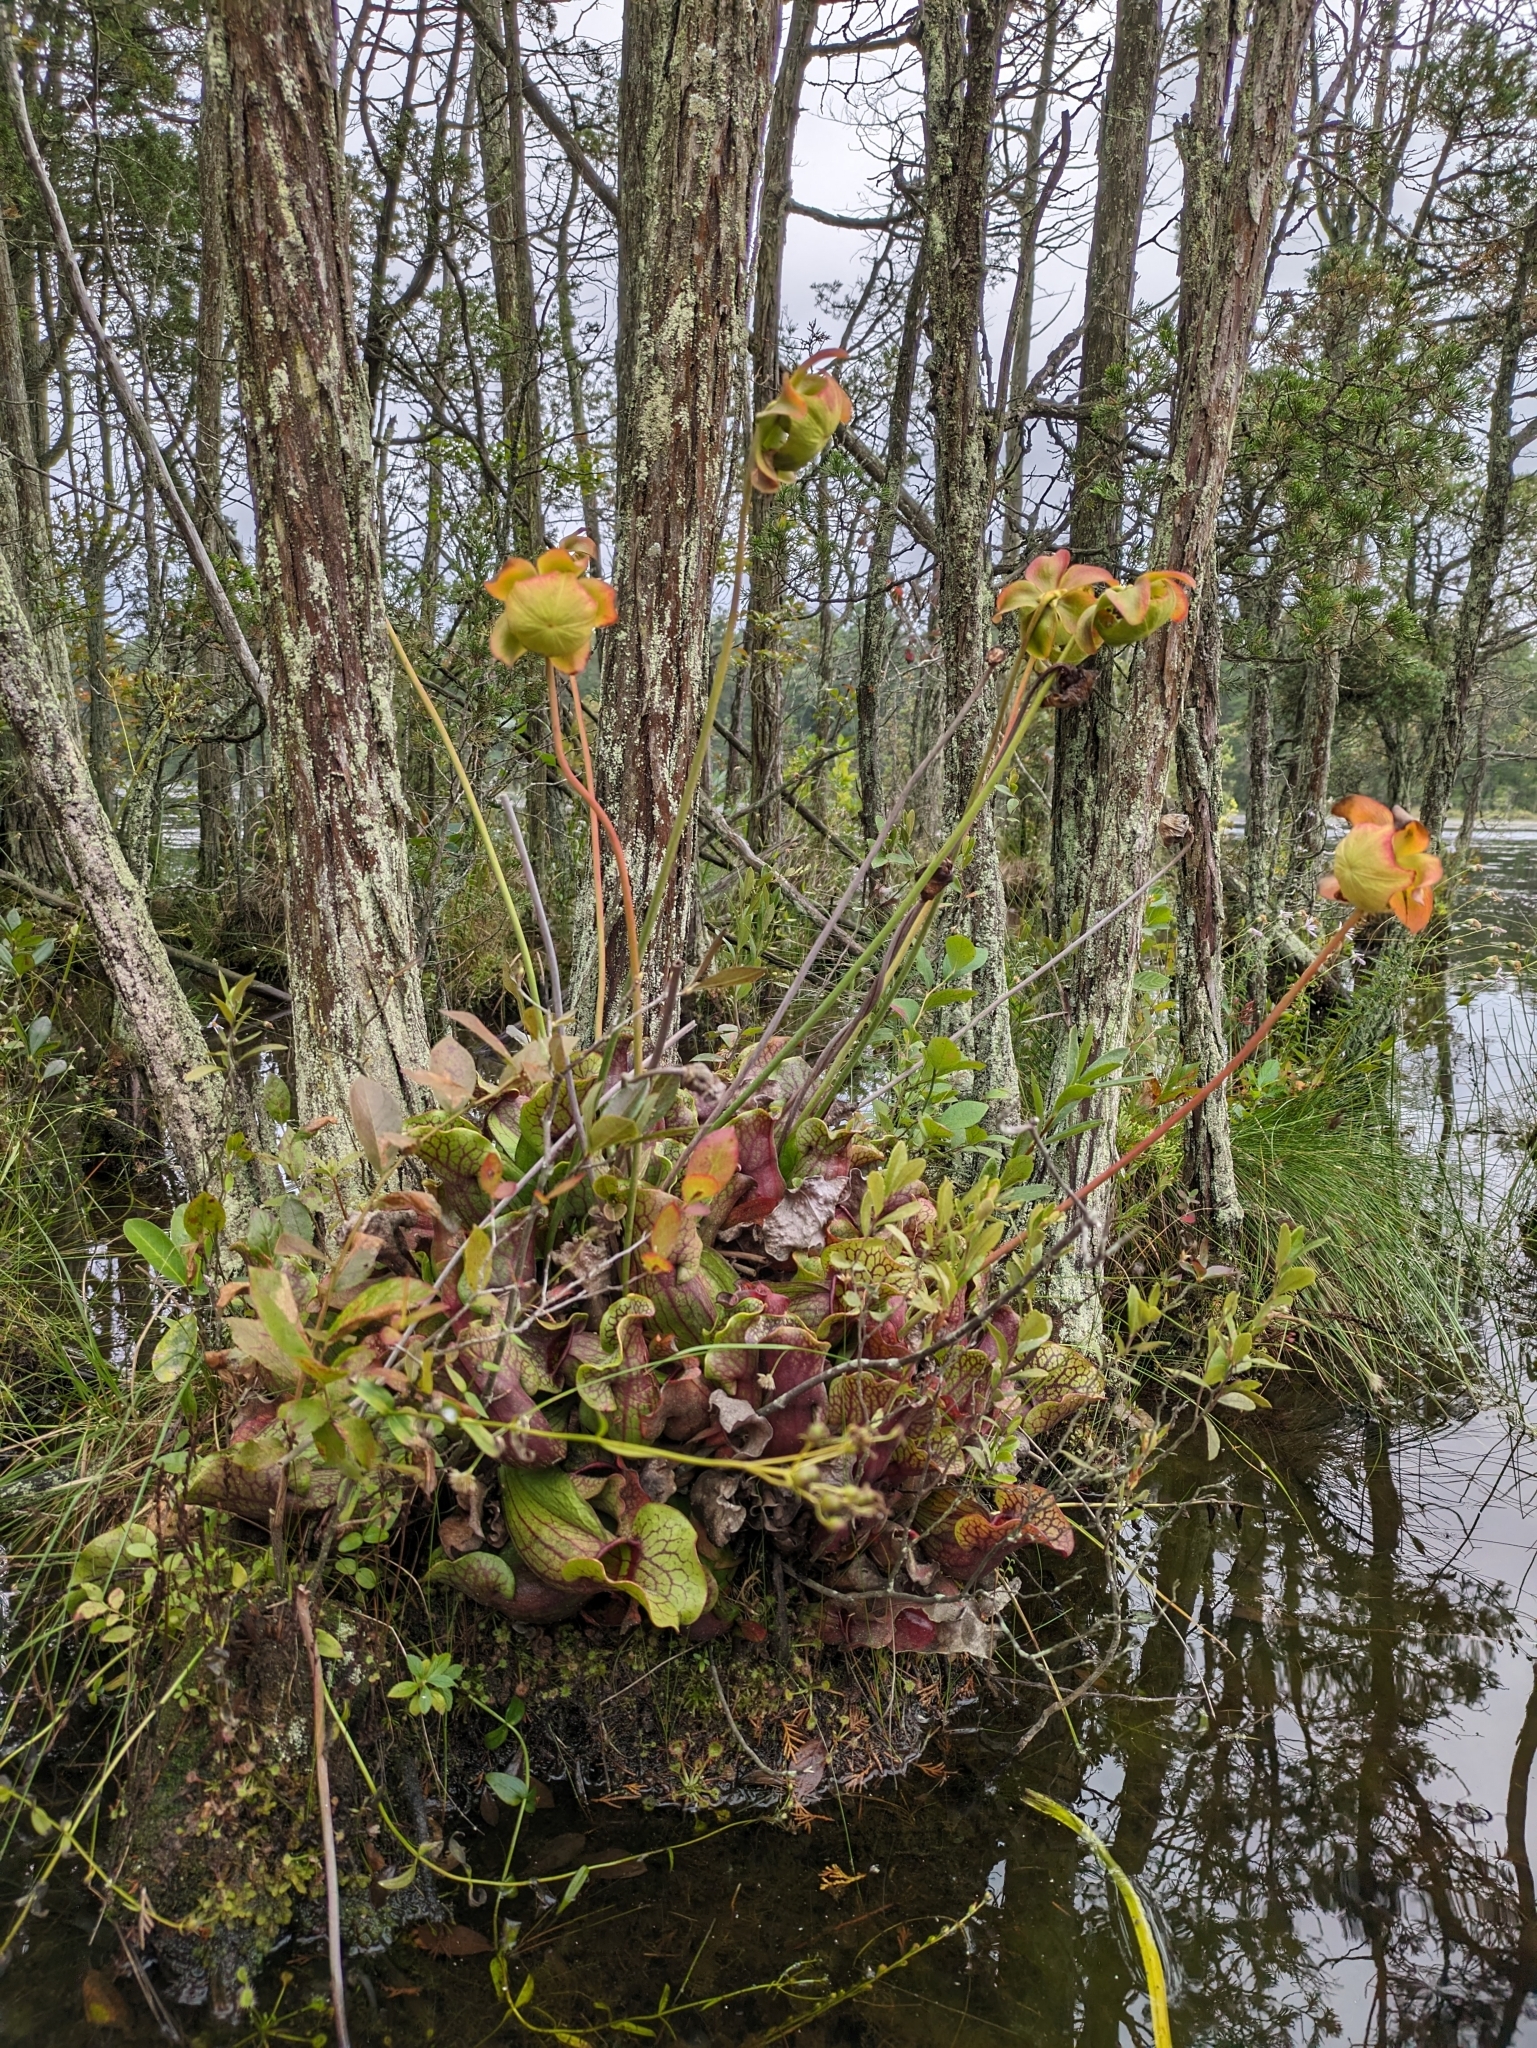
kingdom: Plantae
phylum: Tracheophyta
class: Magnoliopsida
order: Ericales
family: Sarraceniaceae
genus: Sarracenia
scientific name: Sarracenia purpurea
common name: Pitcherplant
